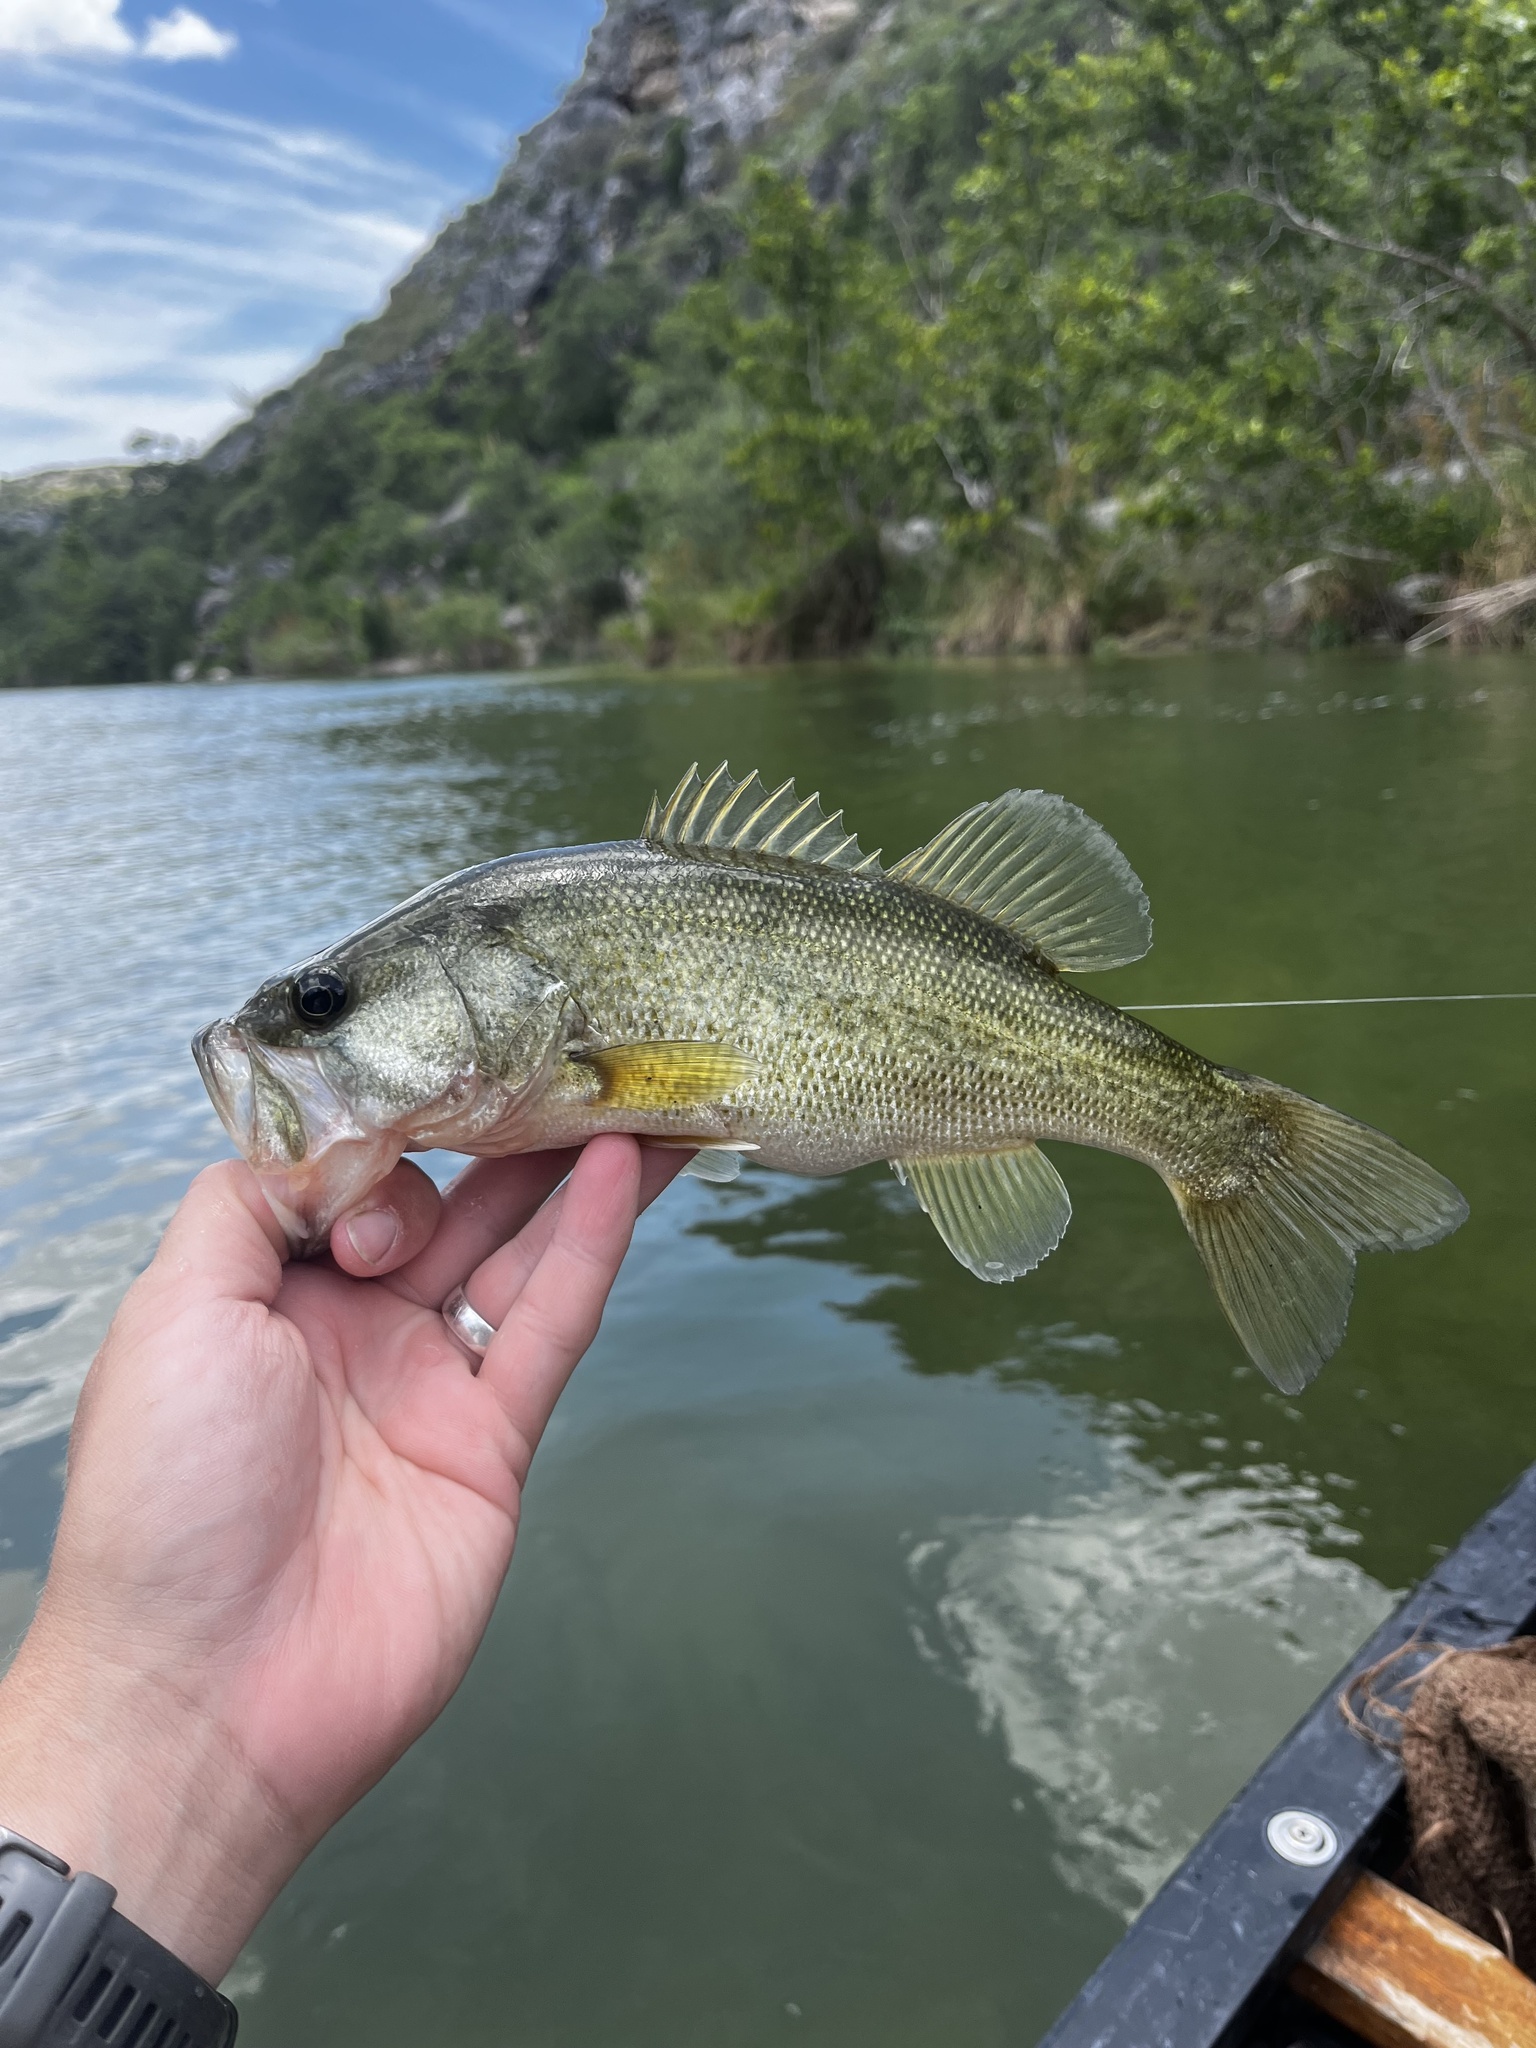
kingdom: Animalia
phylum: Chordata
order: Perciformes
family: Centrarchidae
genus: Micropterus
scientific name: Micropterus
